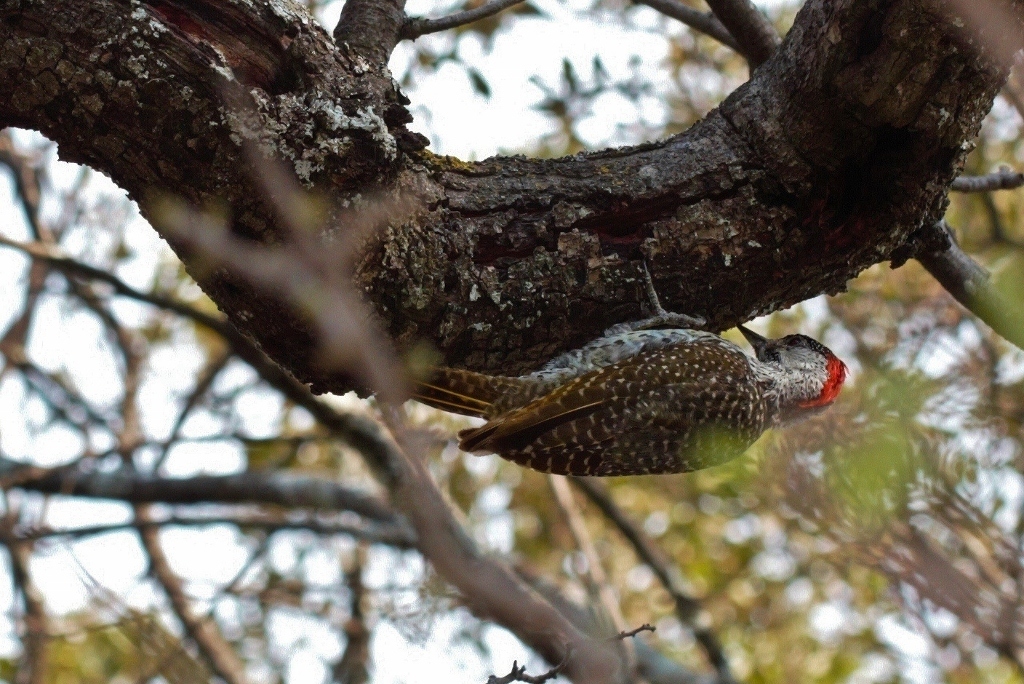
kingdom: Animalia
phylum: Chordata
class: Aves
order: Piciformes
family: Picidae
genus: Campethera
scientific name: Campethera abingoni
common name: Golden-tailed woodpecker
